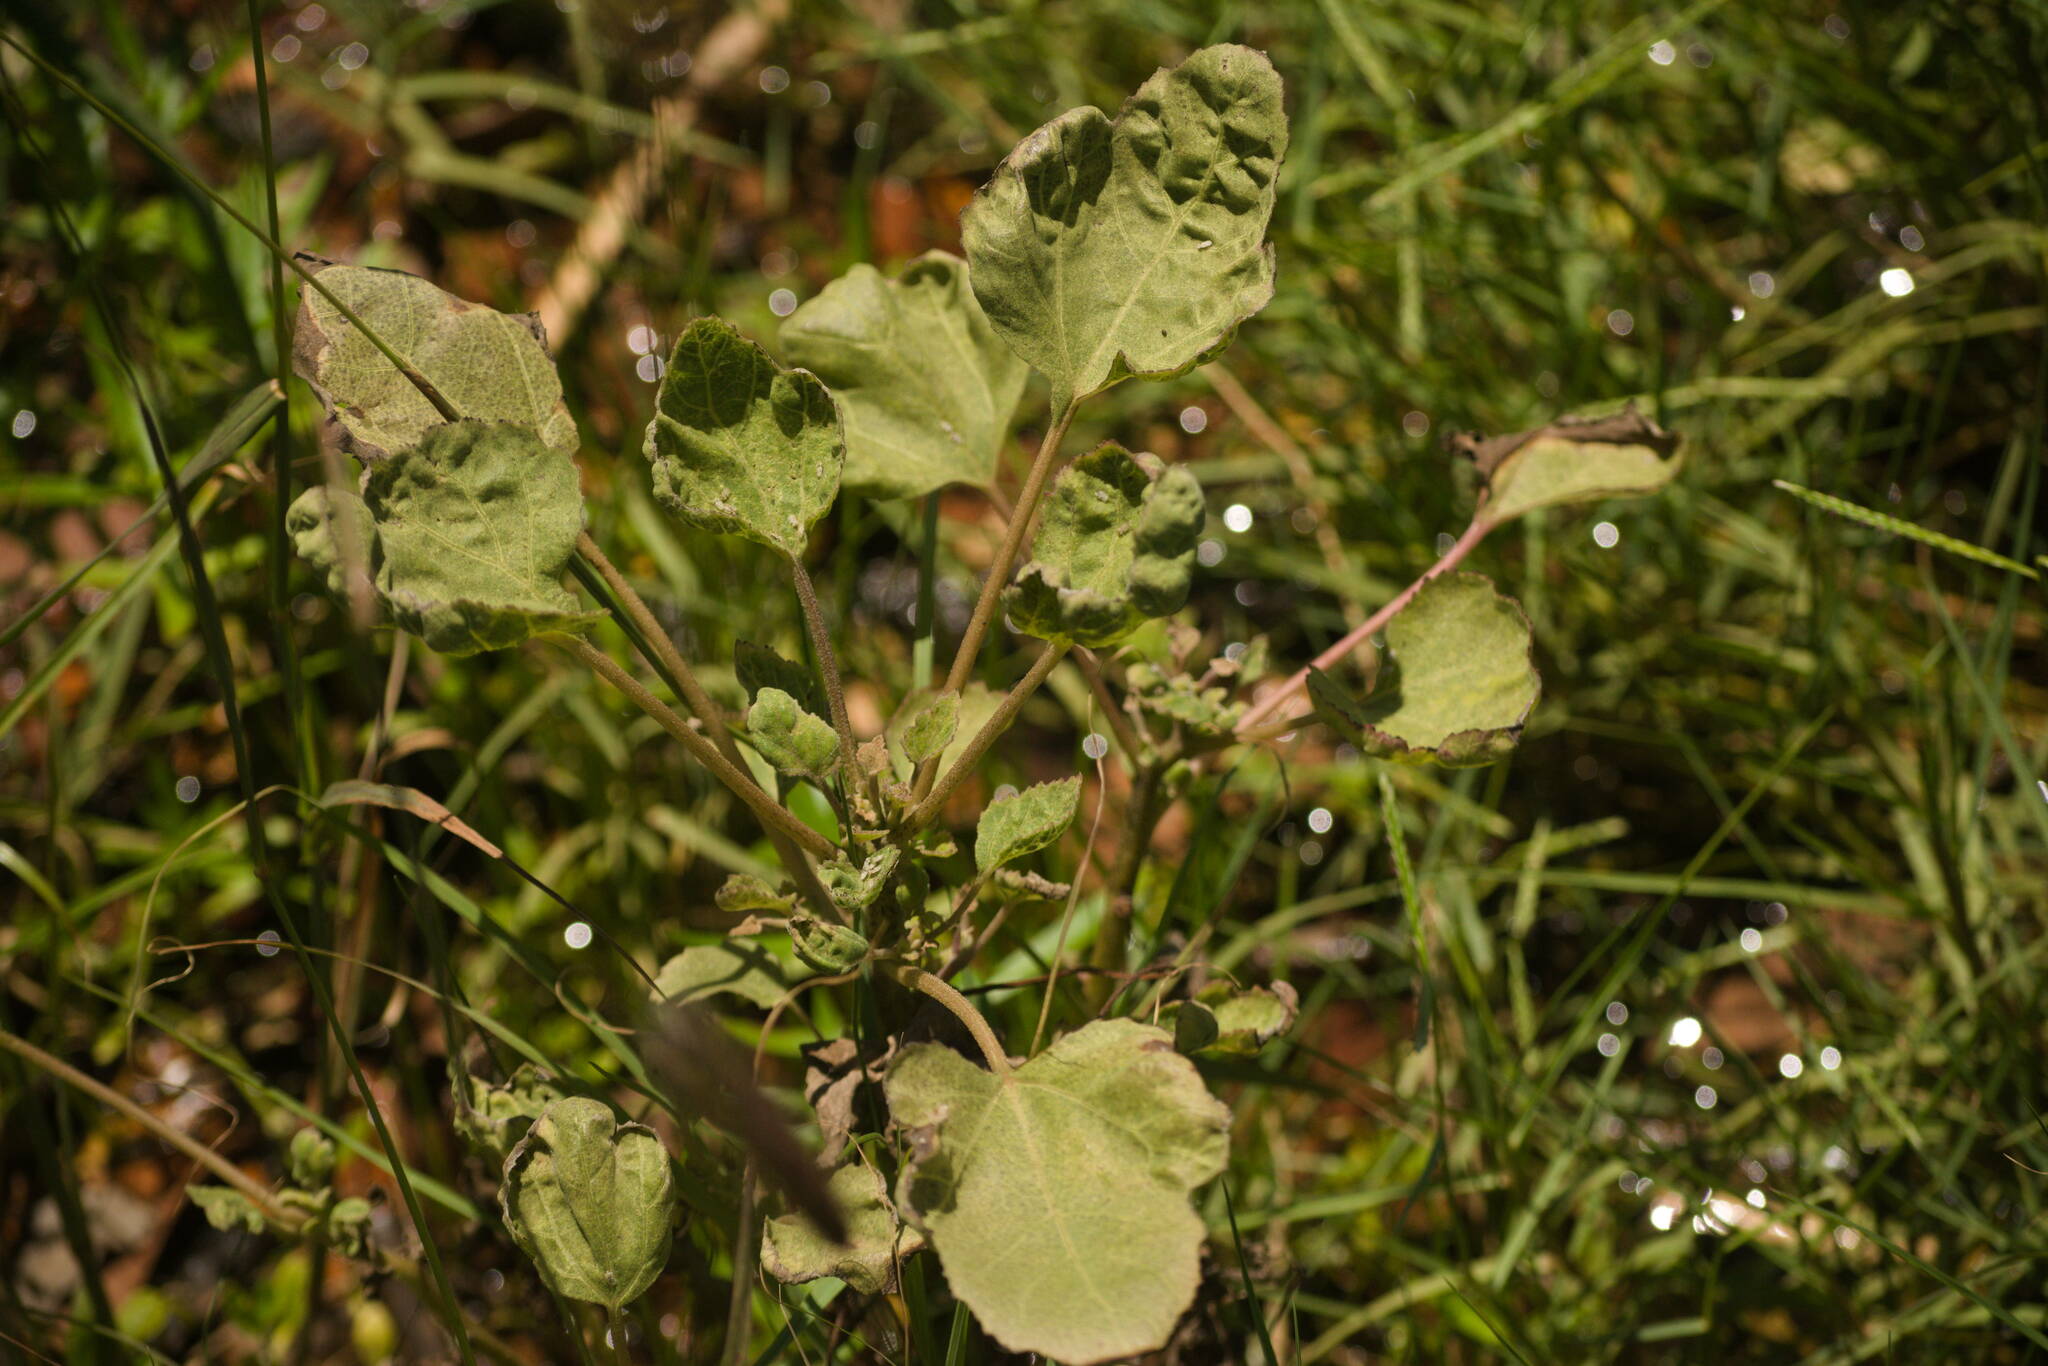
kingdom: Plantae
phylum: Tracheophyta
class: Magnoliopsida
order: Asterales
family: Asteraceae
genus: Xanthium
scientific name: Xanthium strumarium
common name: Rough cocklebur
